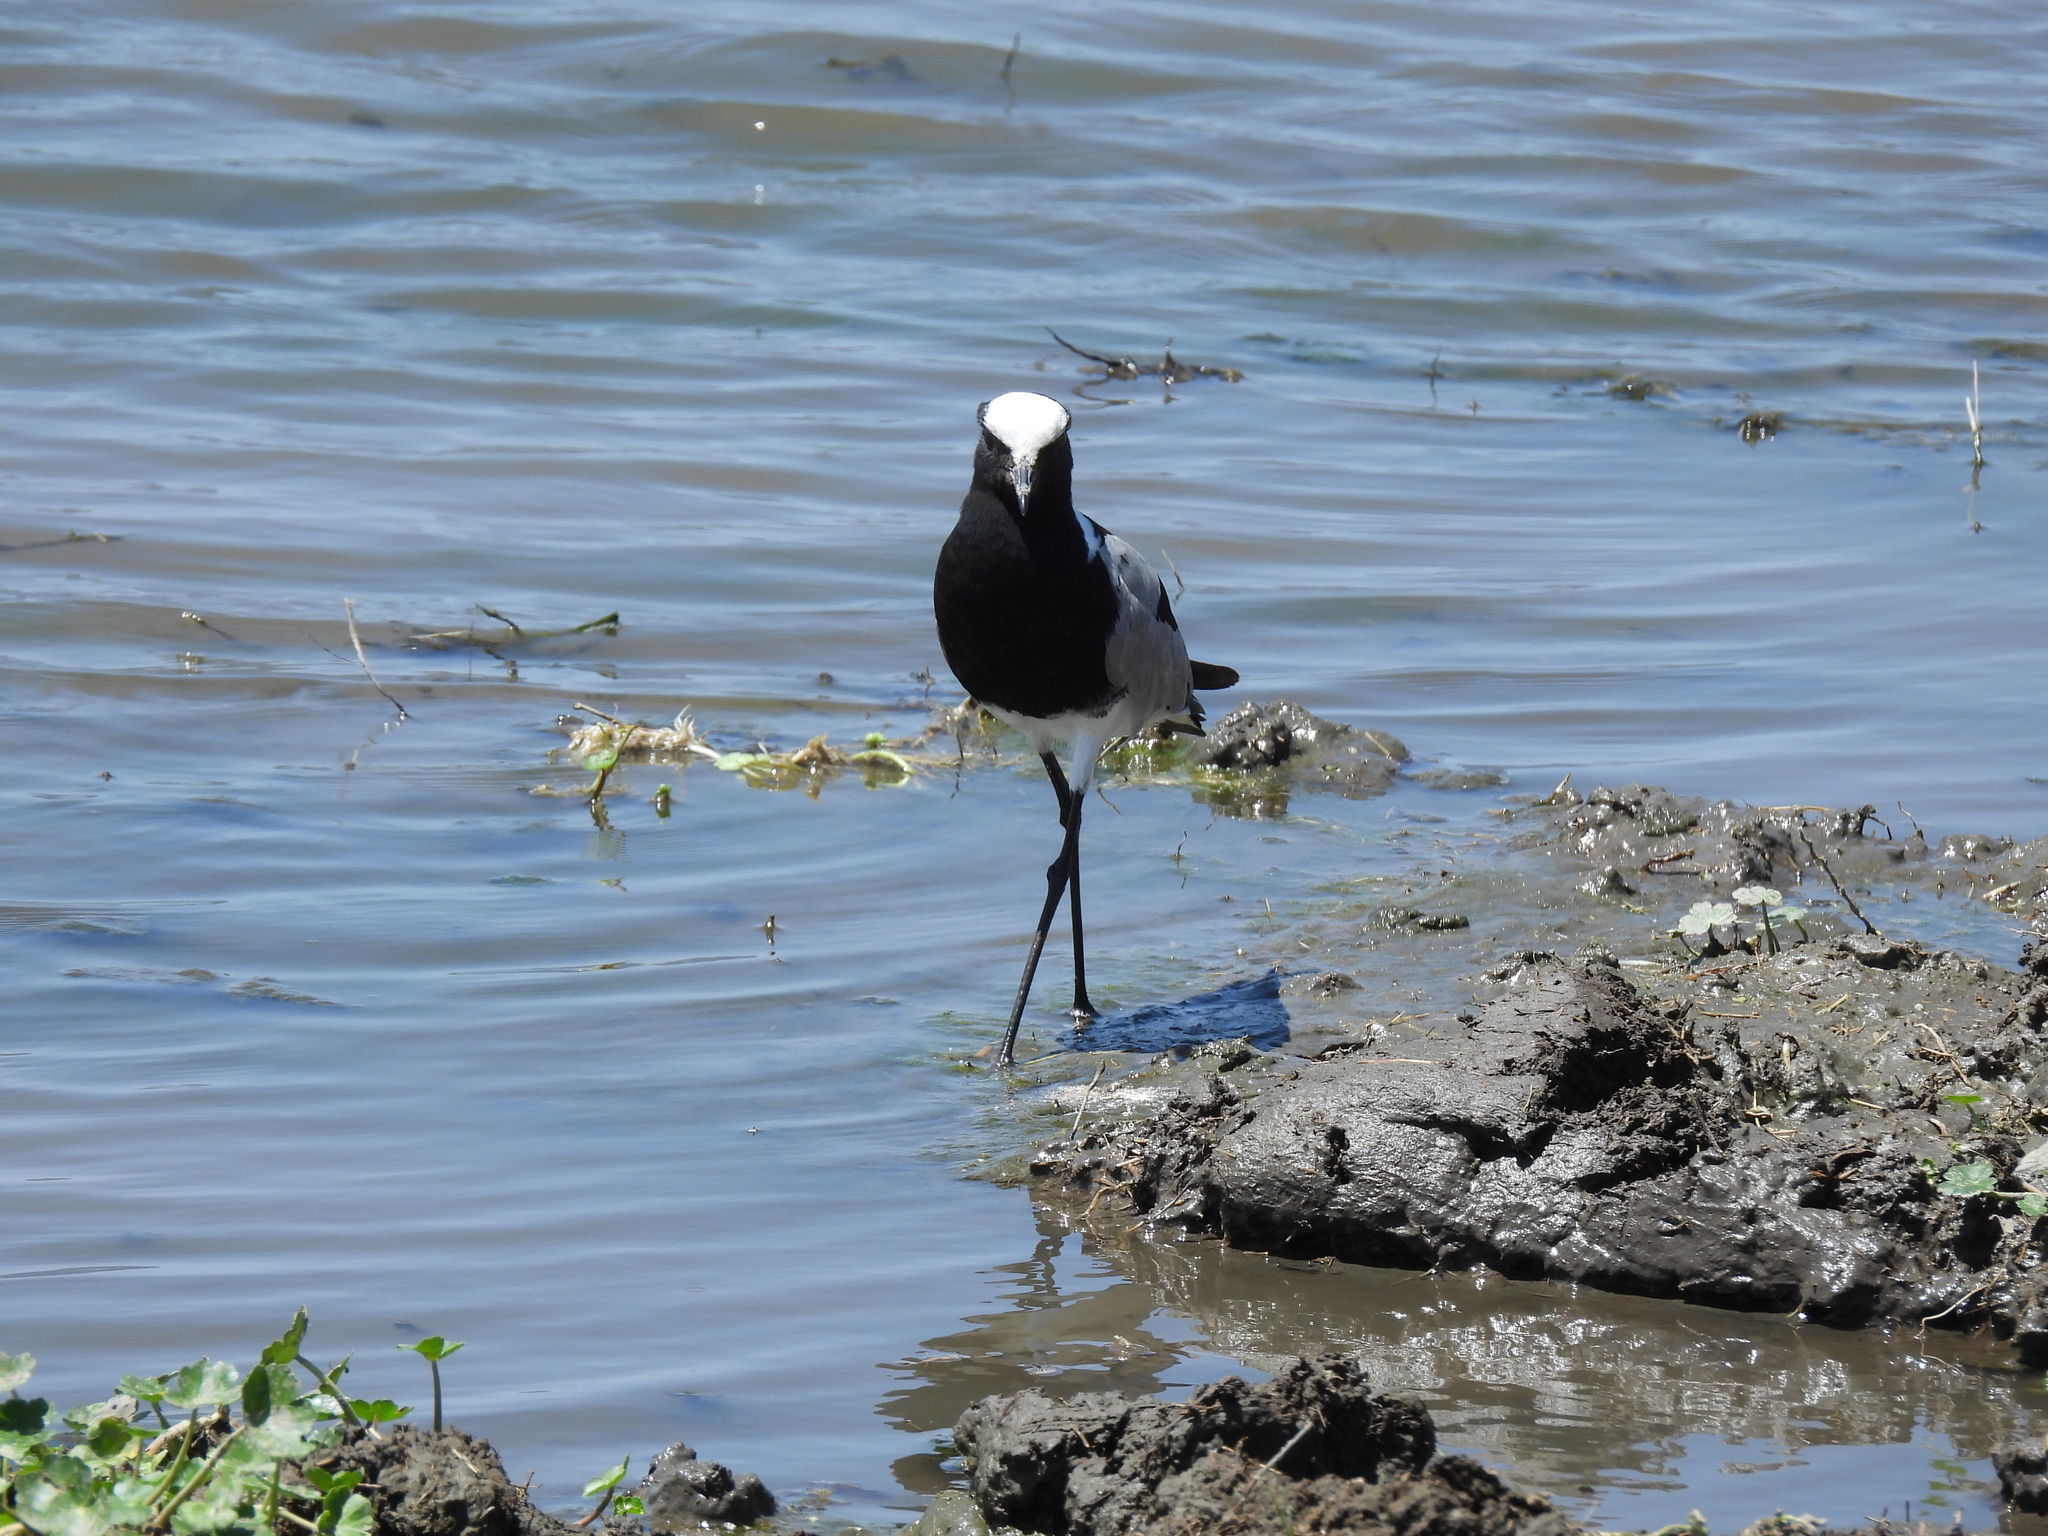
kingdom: Animalia
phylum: Chordata
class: Aves
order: Charadriiformes
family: Charadriidae
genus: Vanellus
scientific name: Vanellus armatus
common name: Blacksmith lapwing
